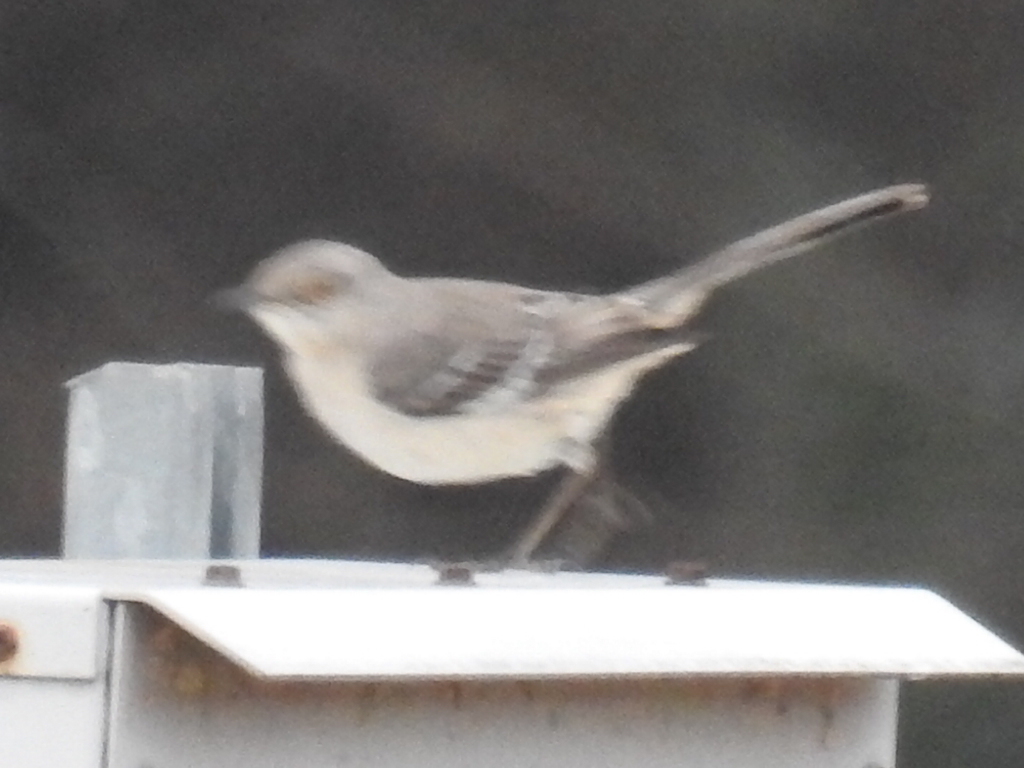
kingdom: Animalia
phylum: Chordata
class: Aves
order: Passeriformes
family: Mimidae
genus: Mimus
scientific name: Mimus polyglottos
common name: Northern mockingbird
